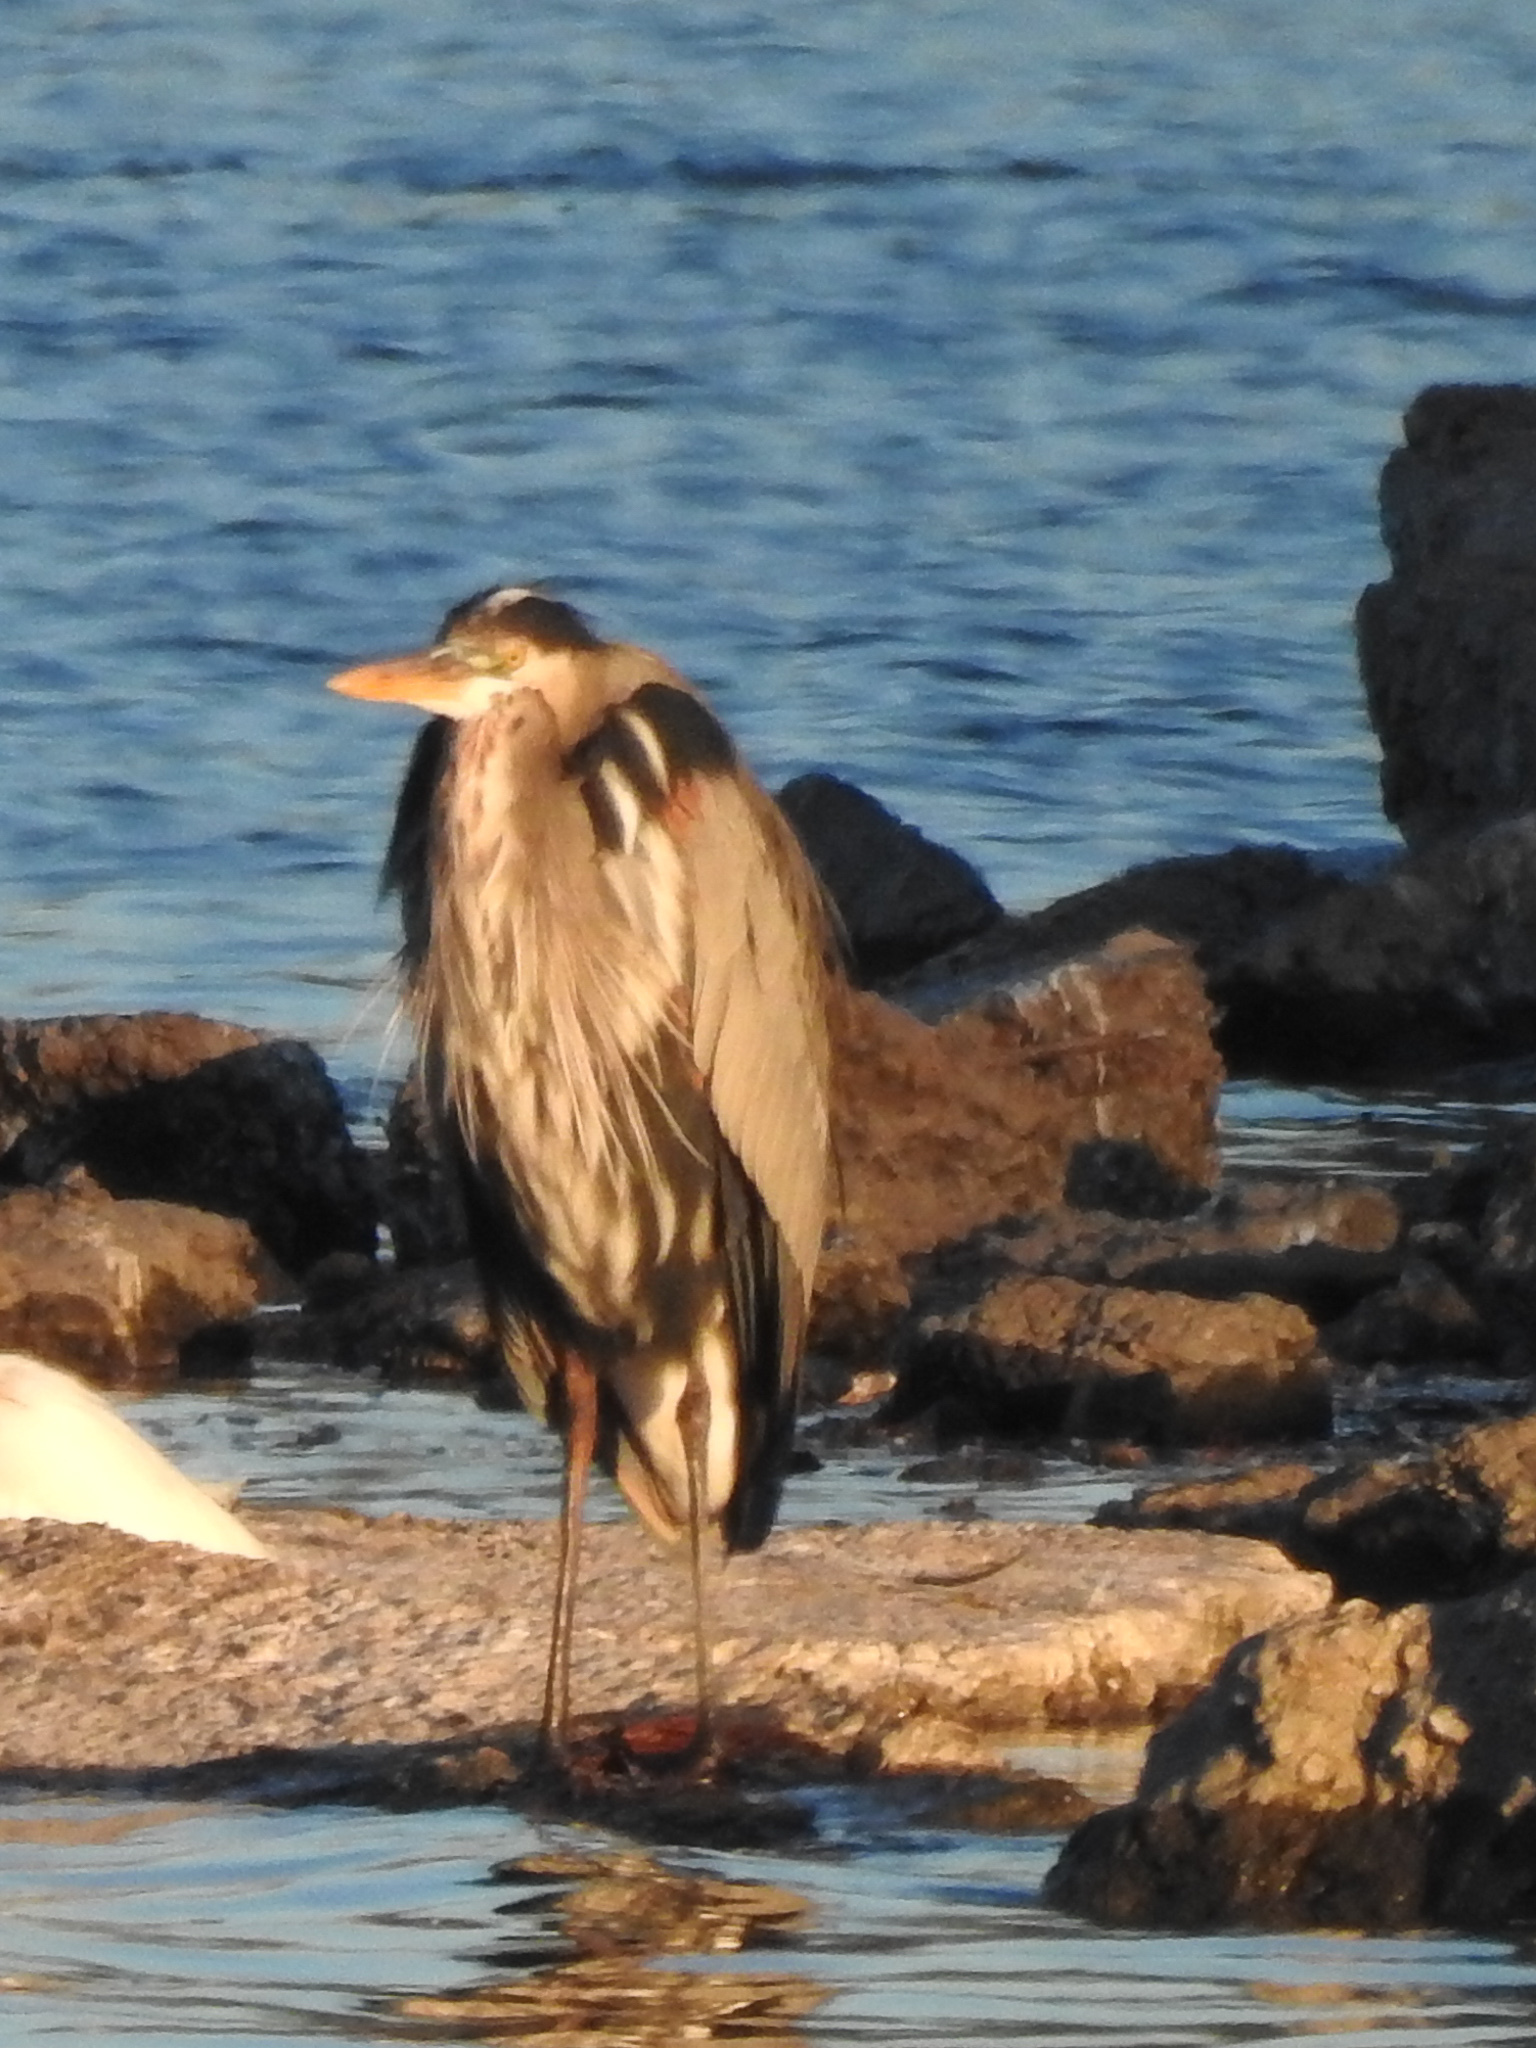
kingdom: Animalia
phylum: Chordata
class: Aves
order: Pelecaniformes
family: Ardeidae
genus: Ardea
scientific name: Ardea herodias
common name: Great blue heron
